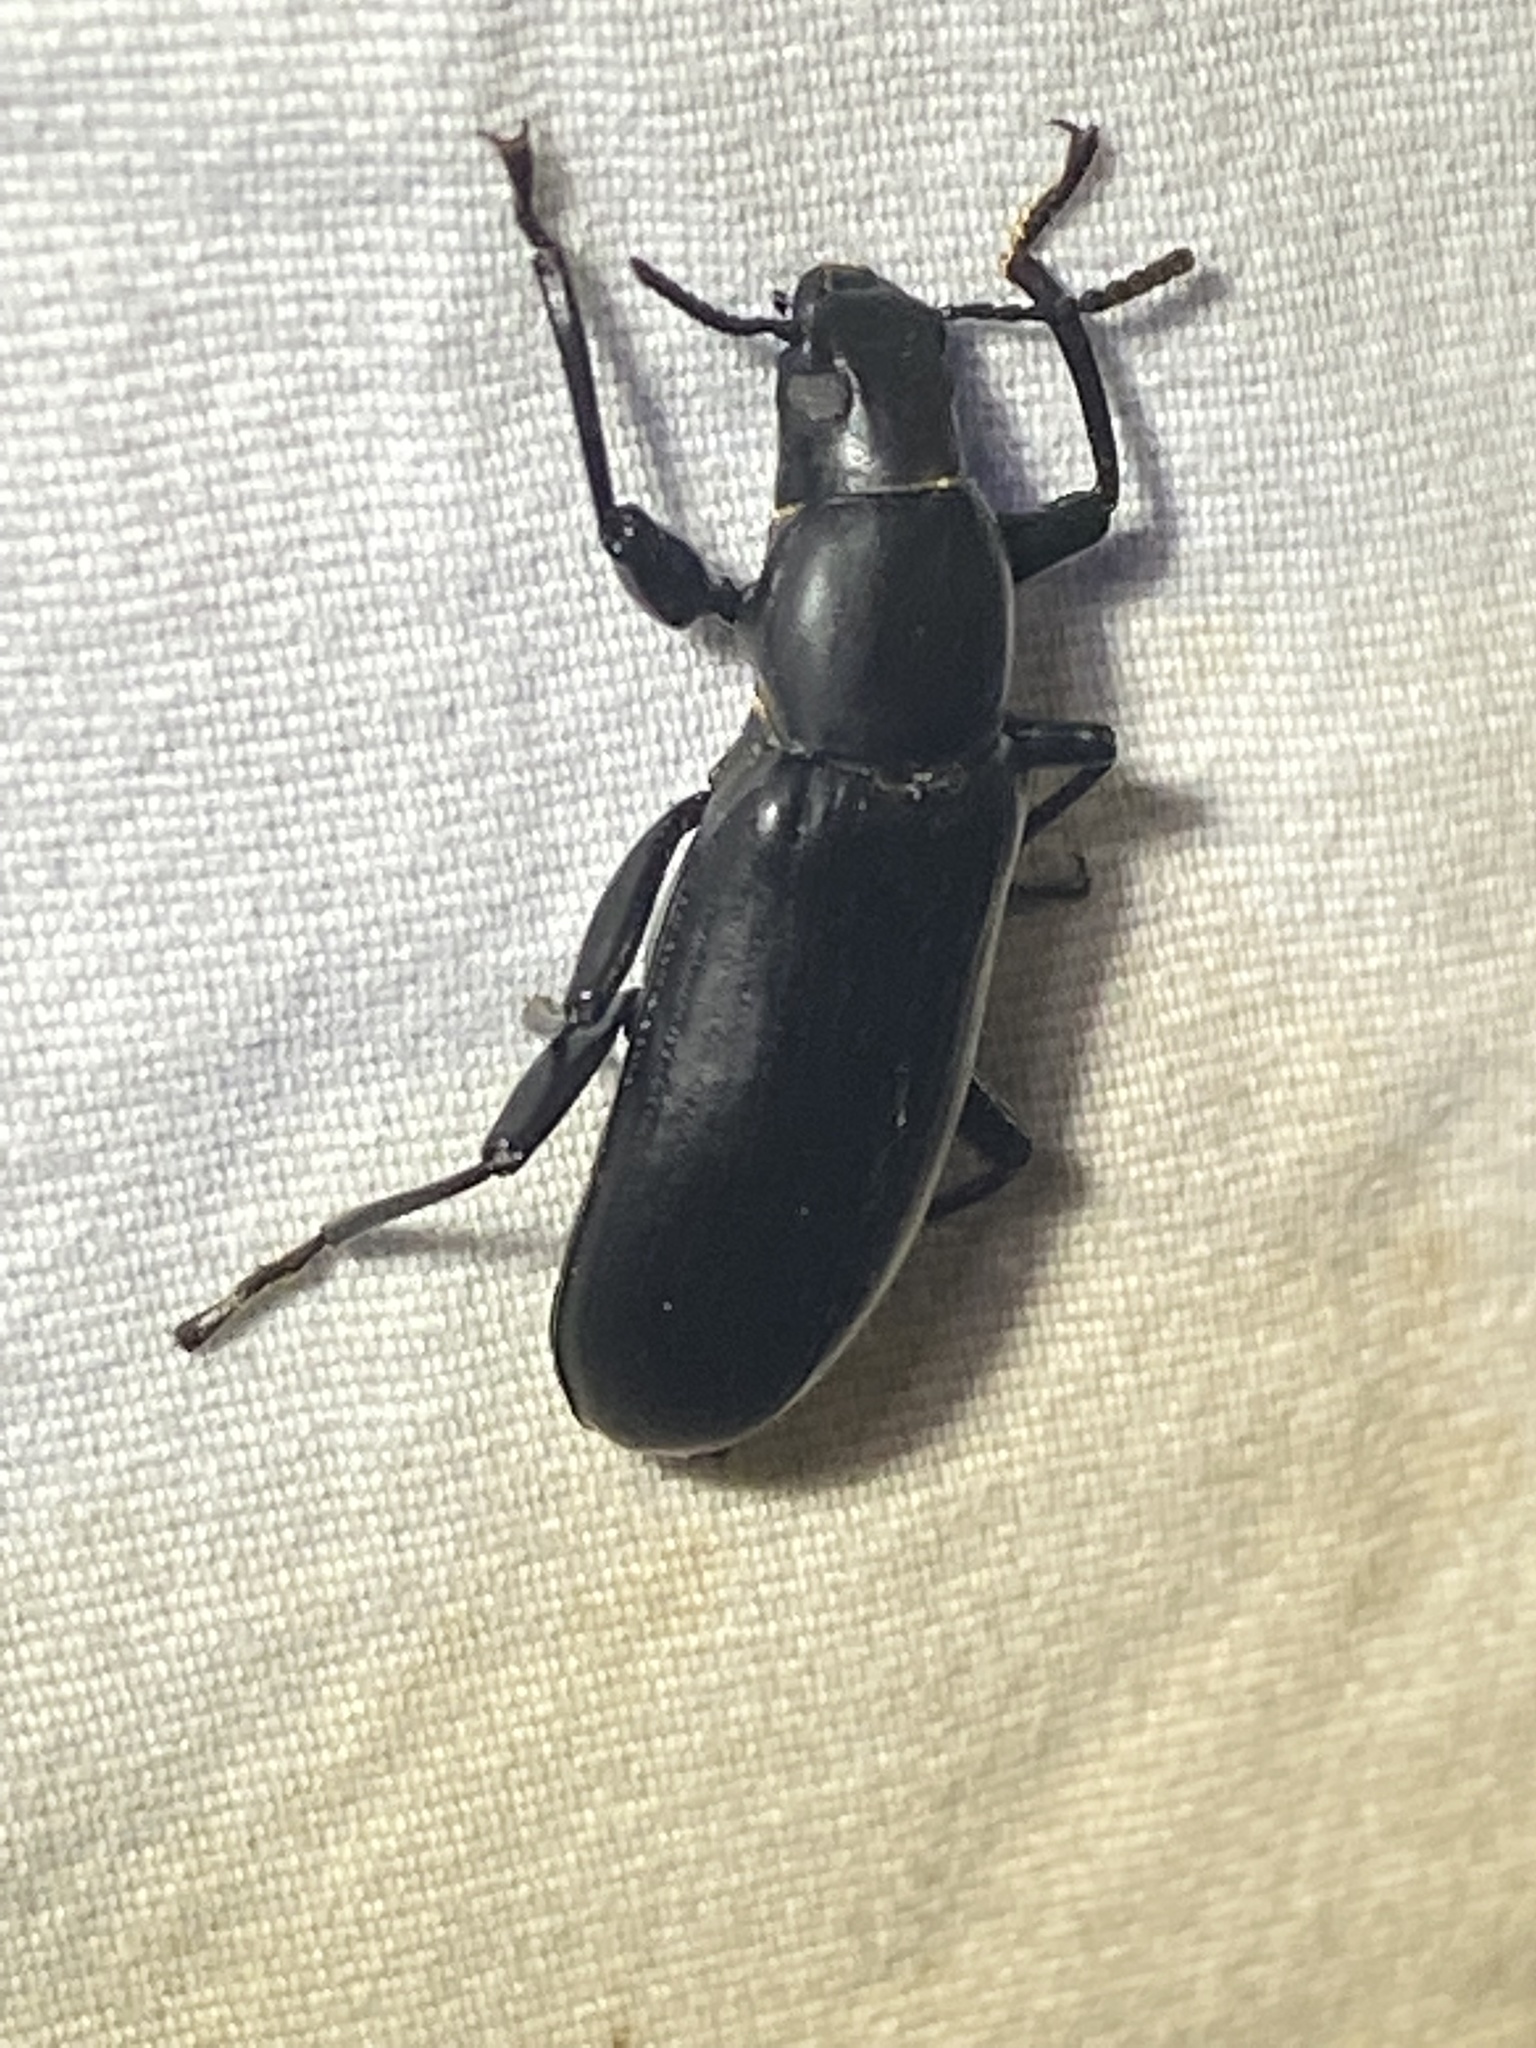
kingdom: Animalia
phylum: Arthropoda
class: Insecta
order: Coleoptera
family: Tenebrionidae
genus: Merinus
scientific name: Merinus laevis
